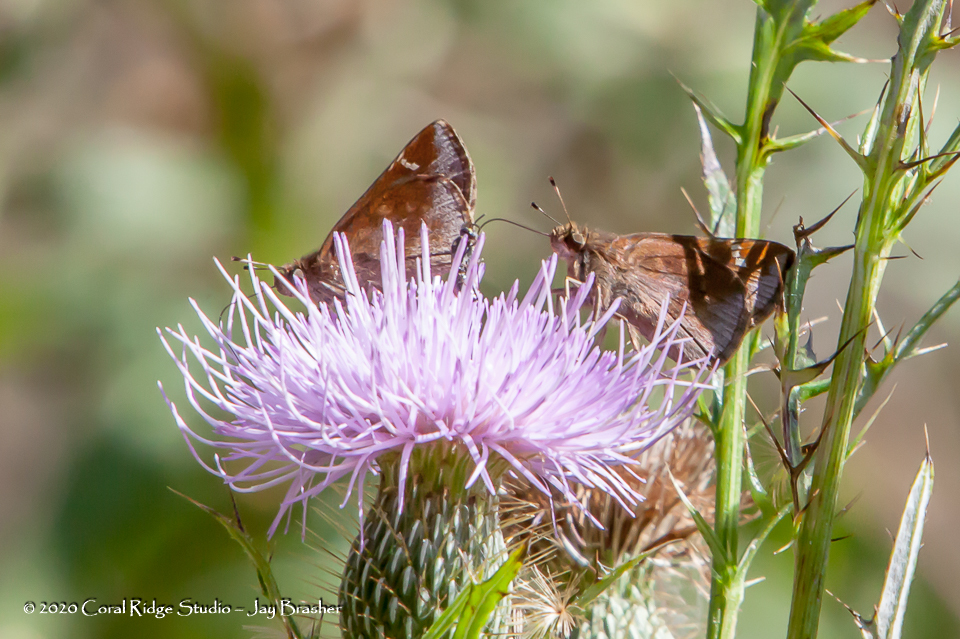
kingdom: Animalia
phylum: Arthropoda
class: Insecta
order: Lepidoptera
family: Hesperiidae
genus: Lon
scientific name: Lon zabulon
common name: Zabulon skipper
